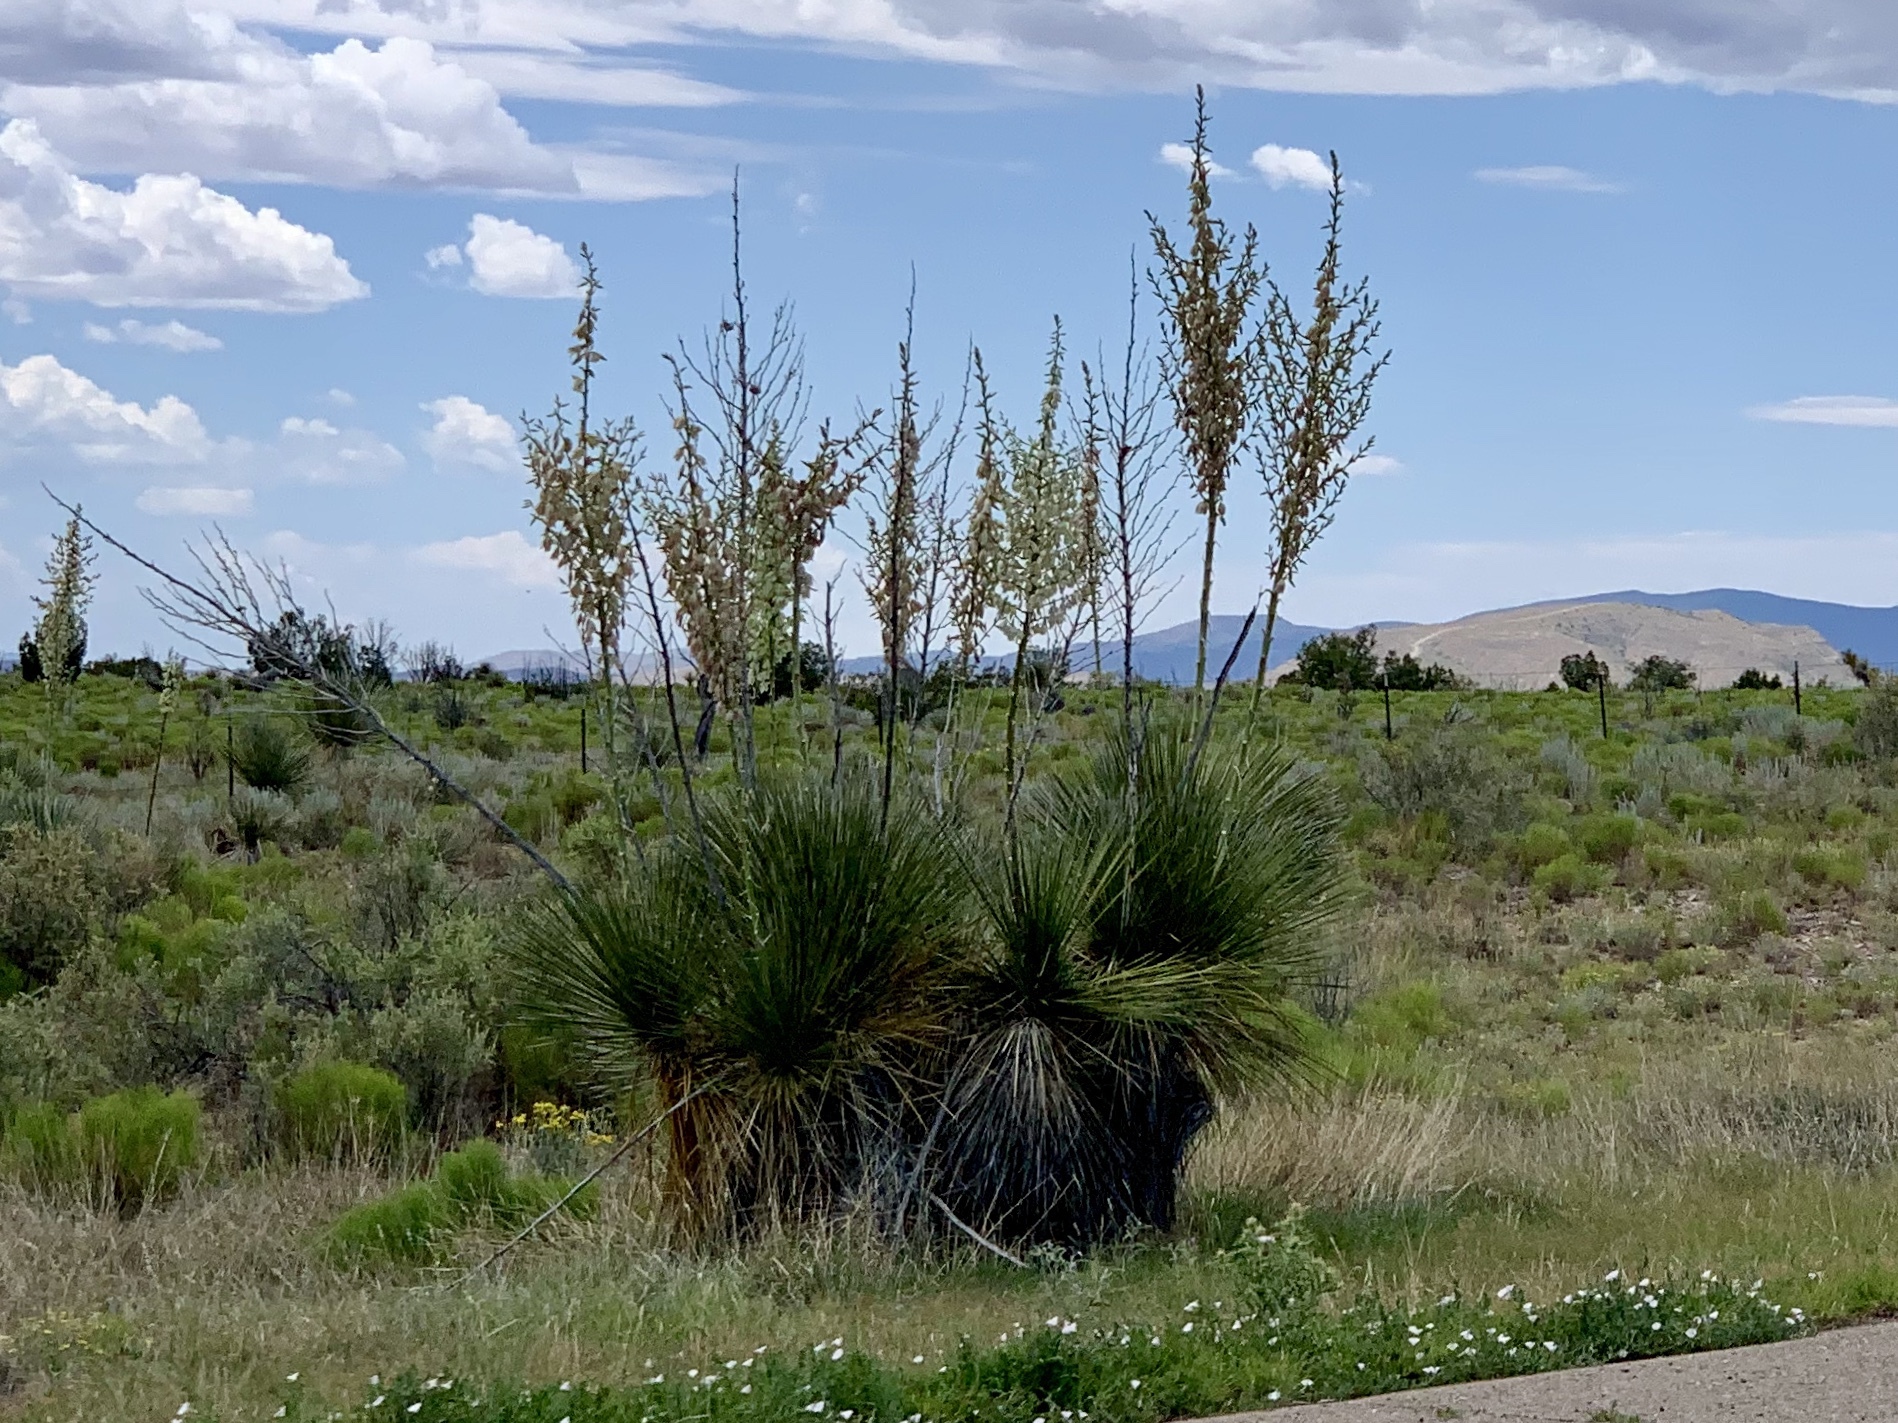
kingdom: Plantae
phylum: Tracheophyta
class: Liliopsida
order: Asparagales
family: Asparagaceae
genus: Yucca
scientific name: Yucca elata
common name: Palmella
